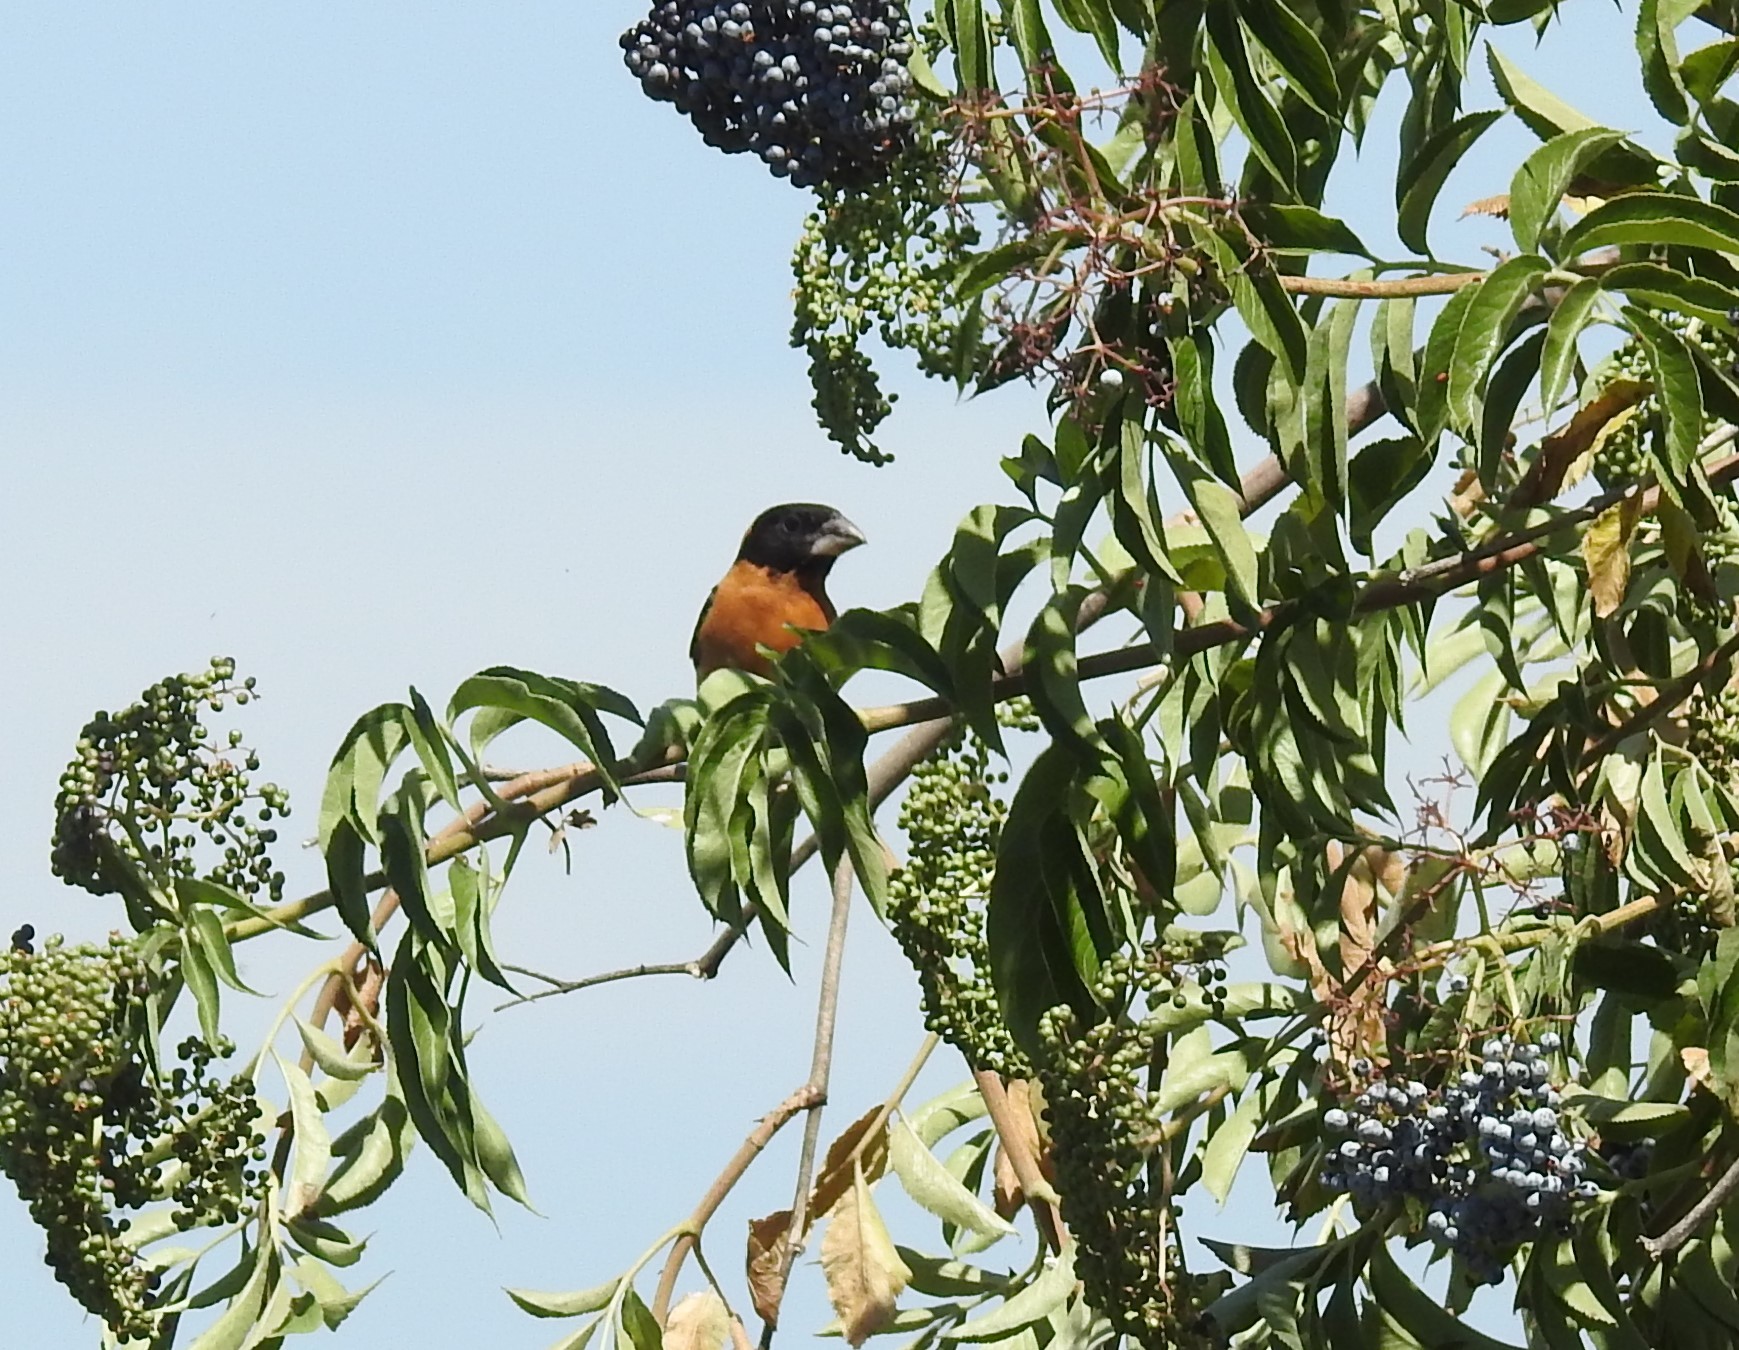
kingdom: Animalia
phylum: Chordata
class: Aves
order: Passeriformes
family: Cardinalidae
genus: Pheucticus
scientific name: Pheucticus melanocephalus
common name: Black-headed grosbeak
